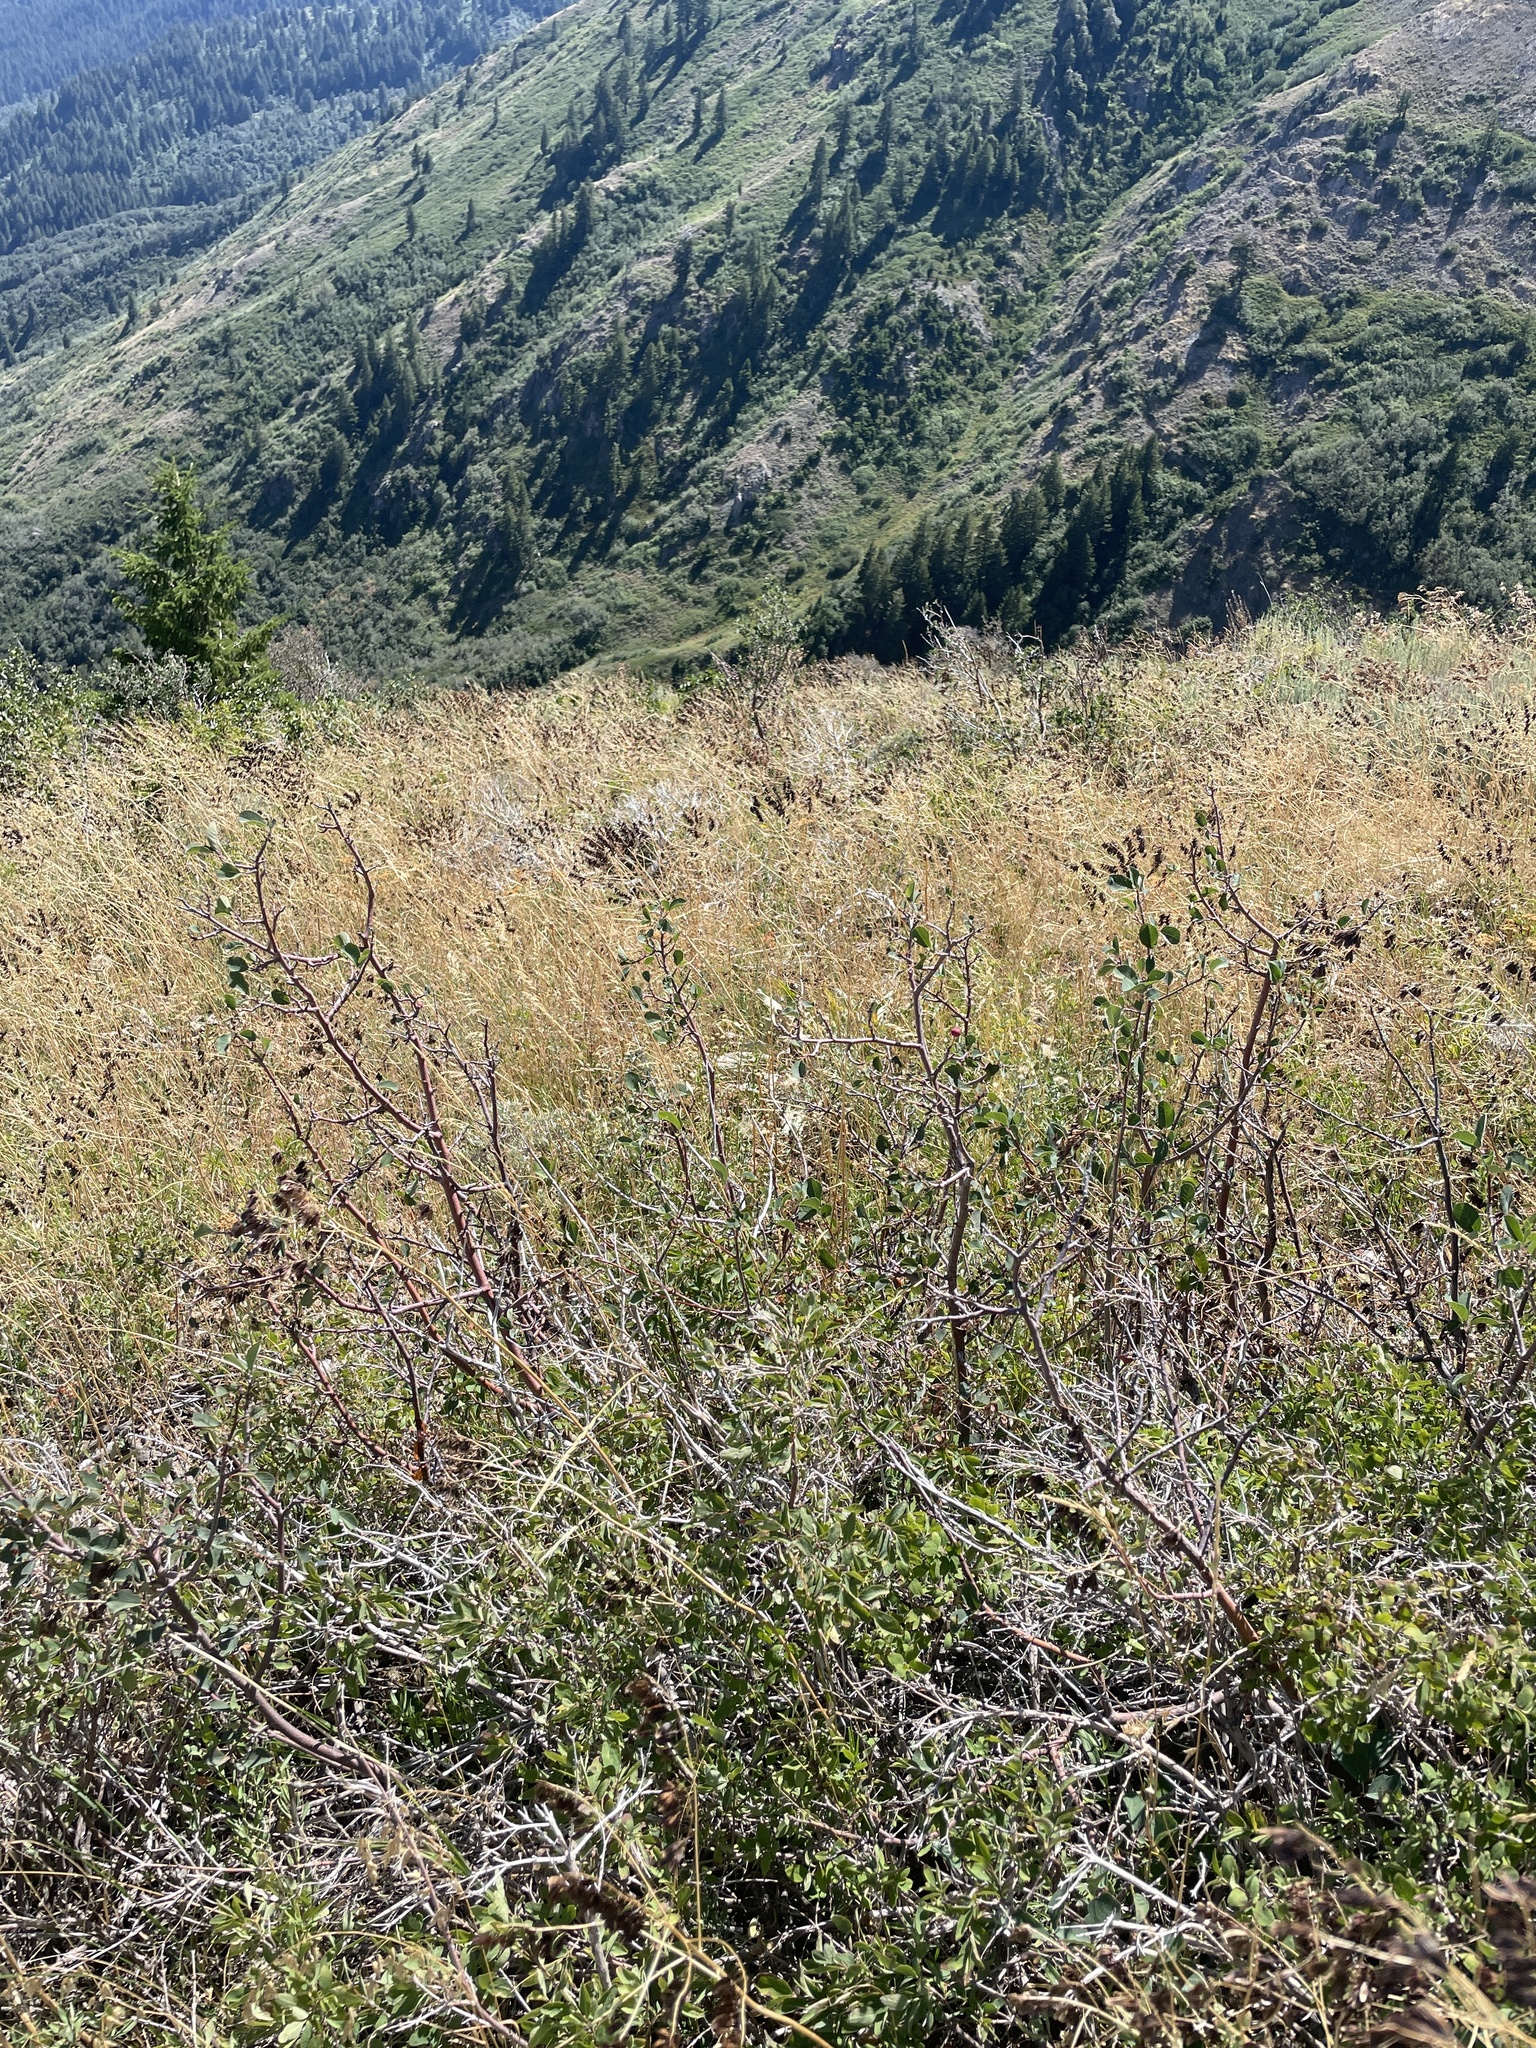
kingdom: Plantae
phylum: Tracheophyta
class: Magnoliopsida
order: Brassicales
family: Brassicaceae
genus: Isatis
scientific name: Isatis tinctoria
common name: Woad
